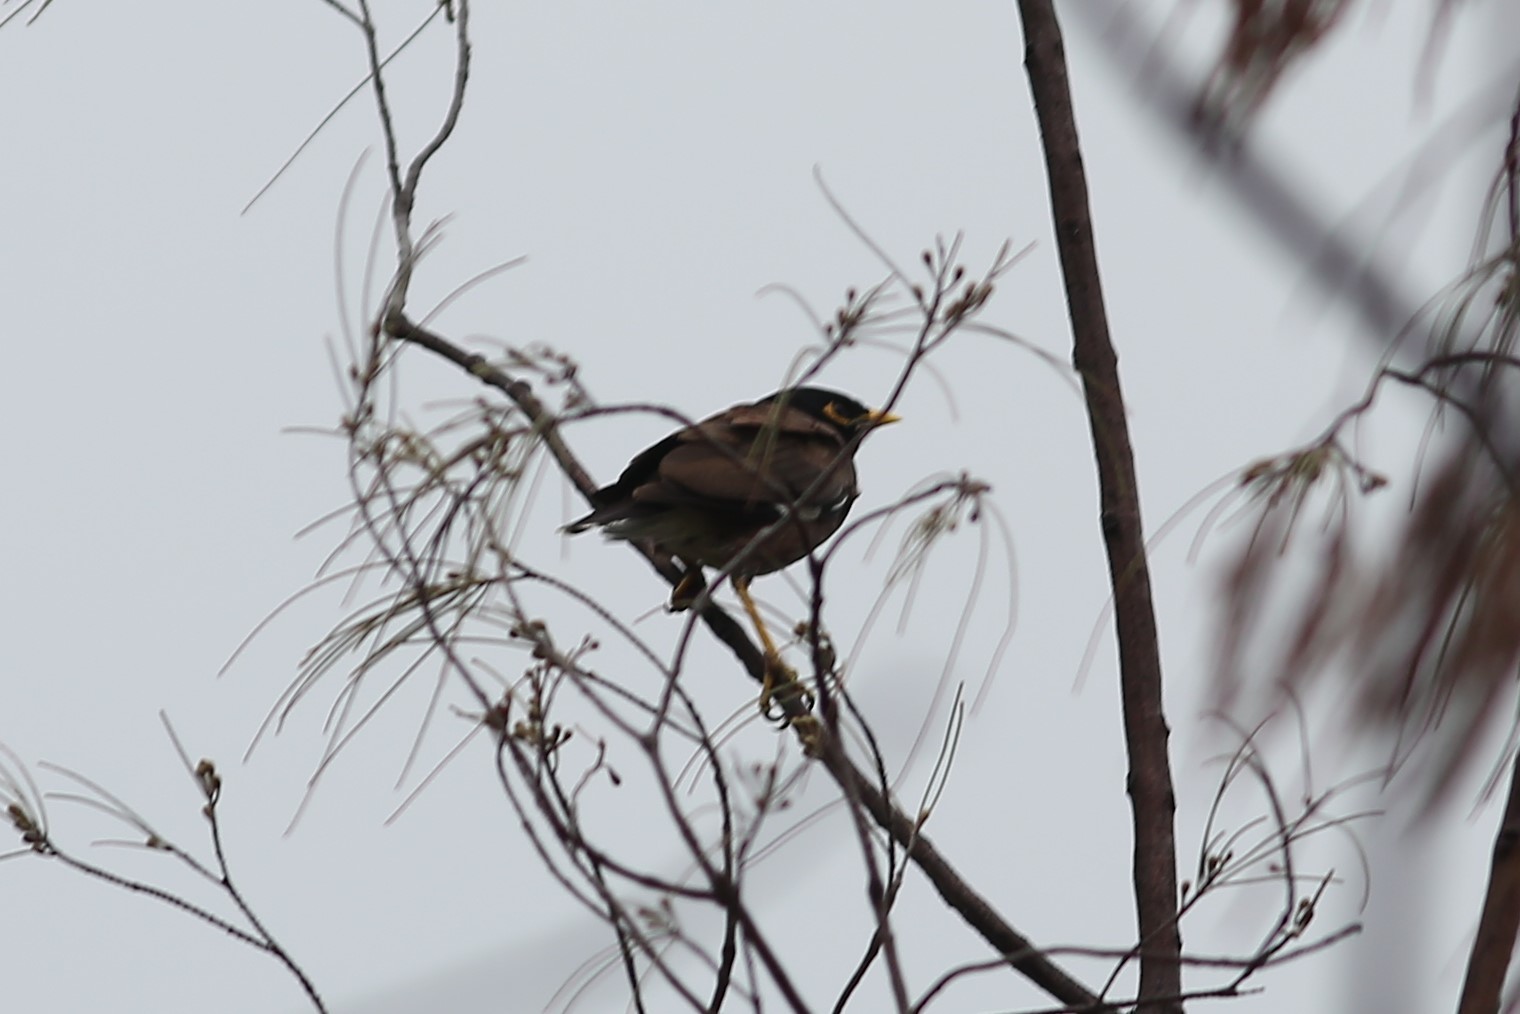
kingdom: Animalia
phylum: Chordata
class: Aves
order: Passeriformes
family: Sturnidae
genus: Acridotheres
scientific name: Acridotheres tristis
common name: Common myna
